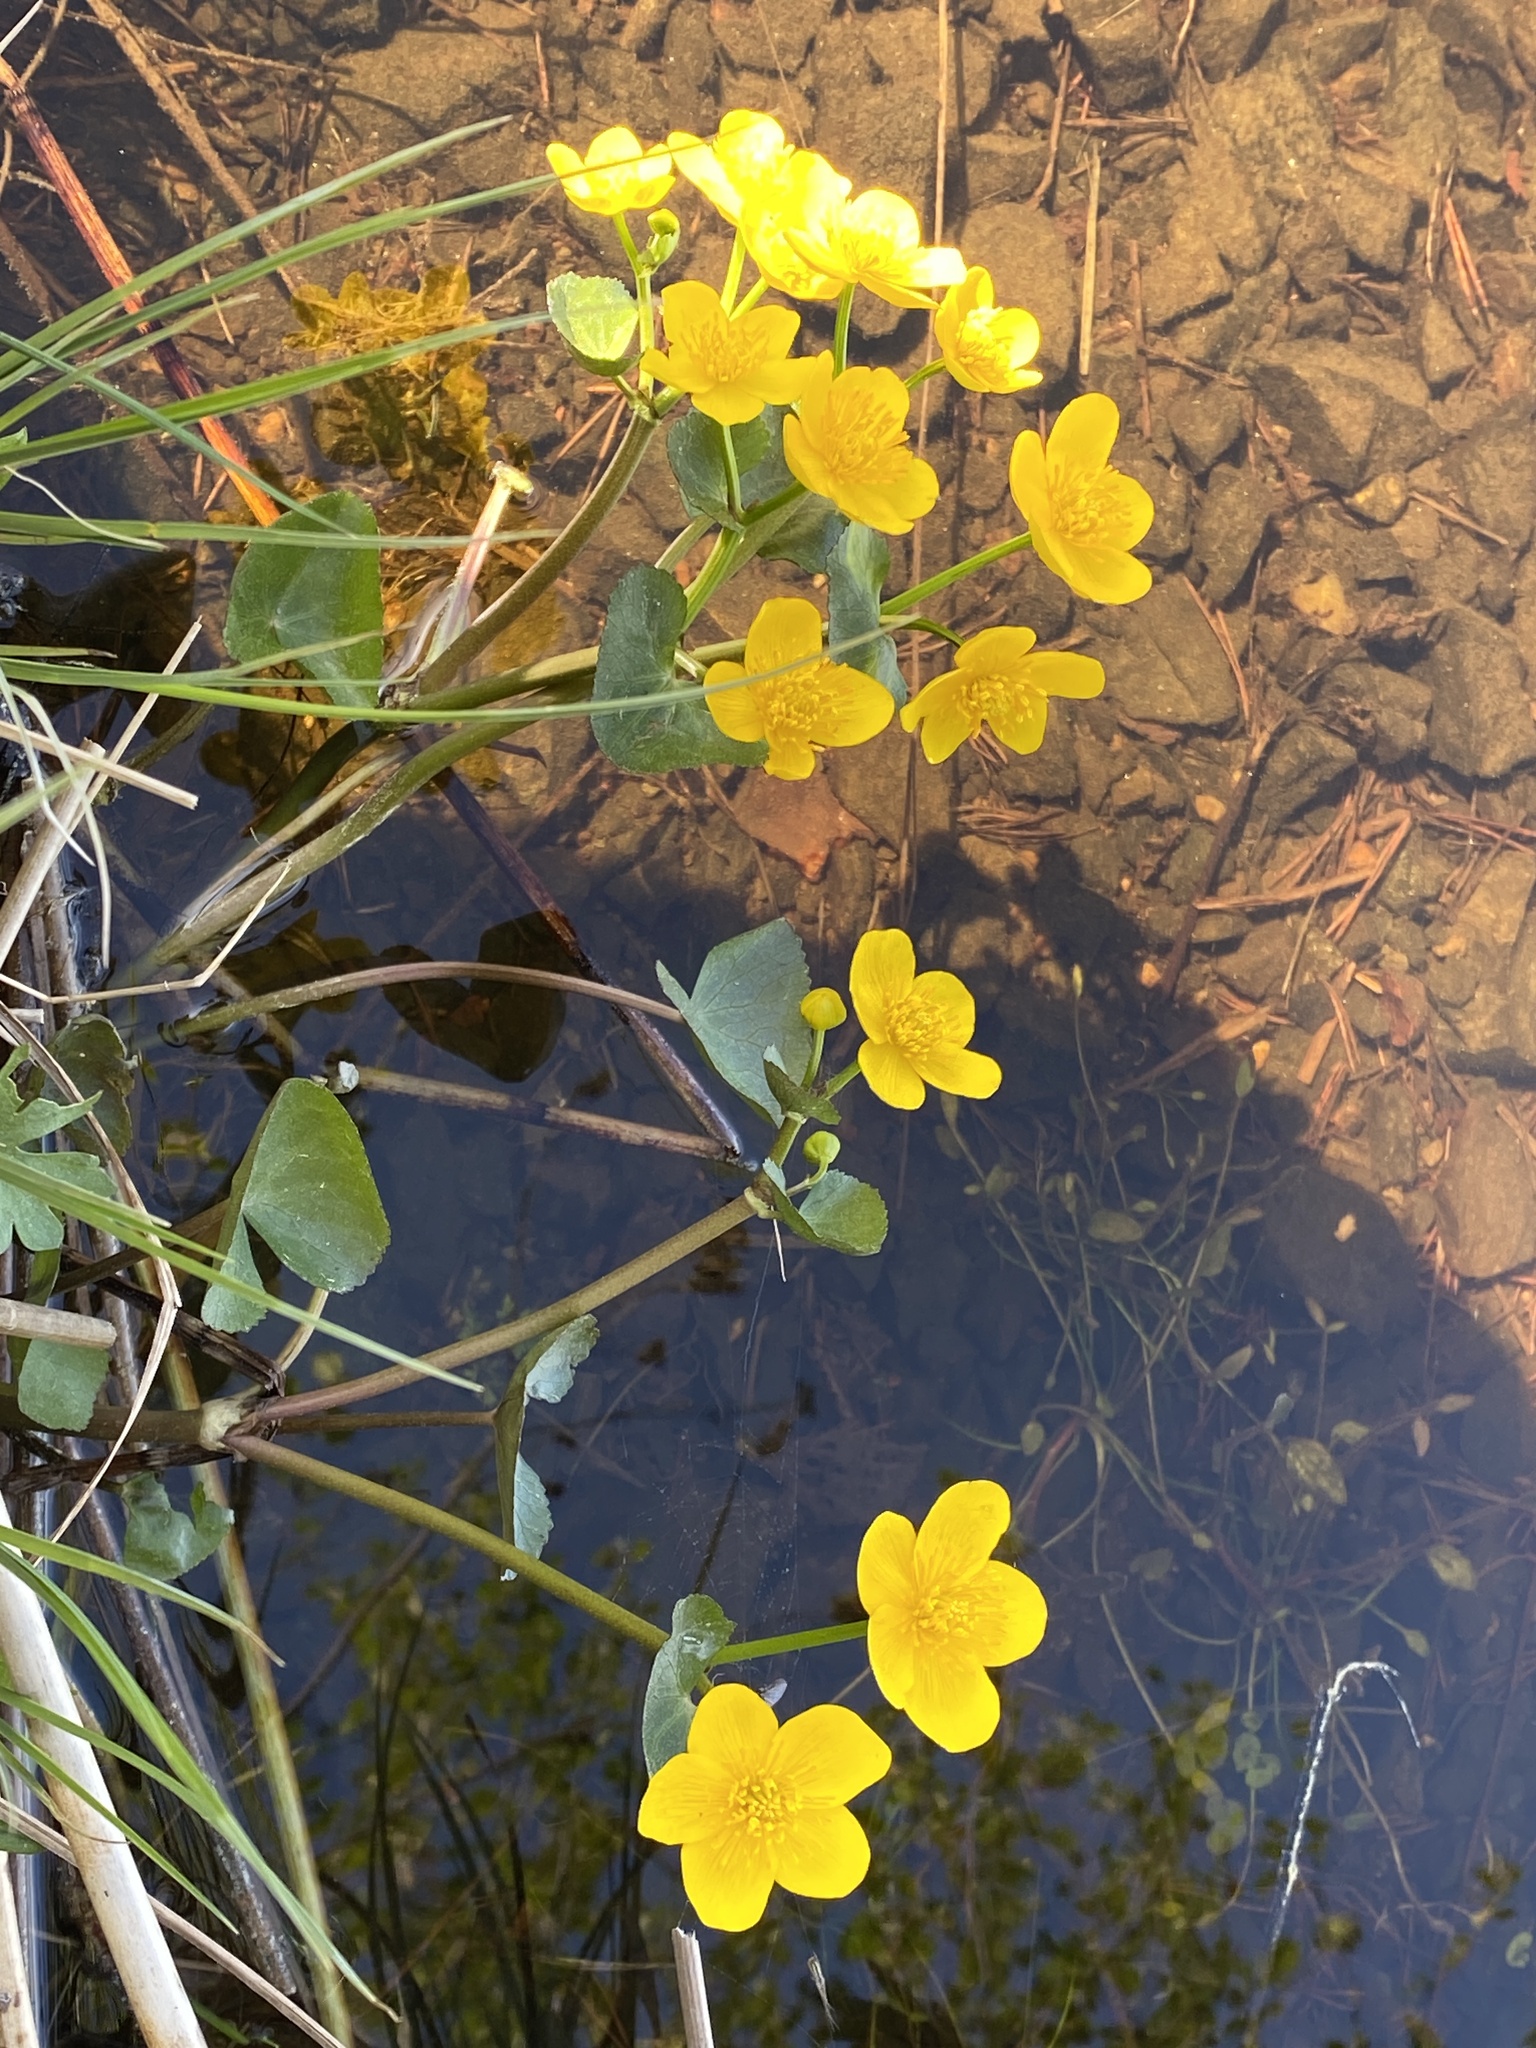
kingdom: Plantae
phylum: Tracheophyta
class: Magnoliopsida
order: Ranunculales
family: Ranunculaceae
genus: Caltha
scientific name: Caltha palustris
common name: Marsh marigold
